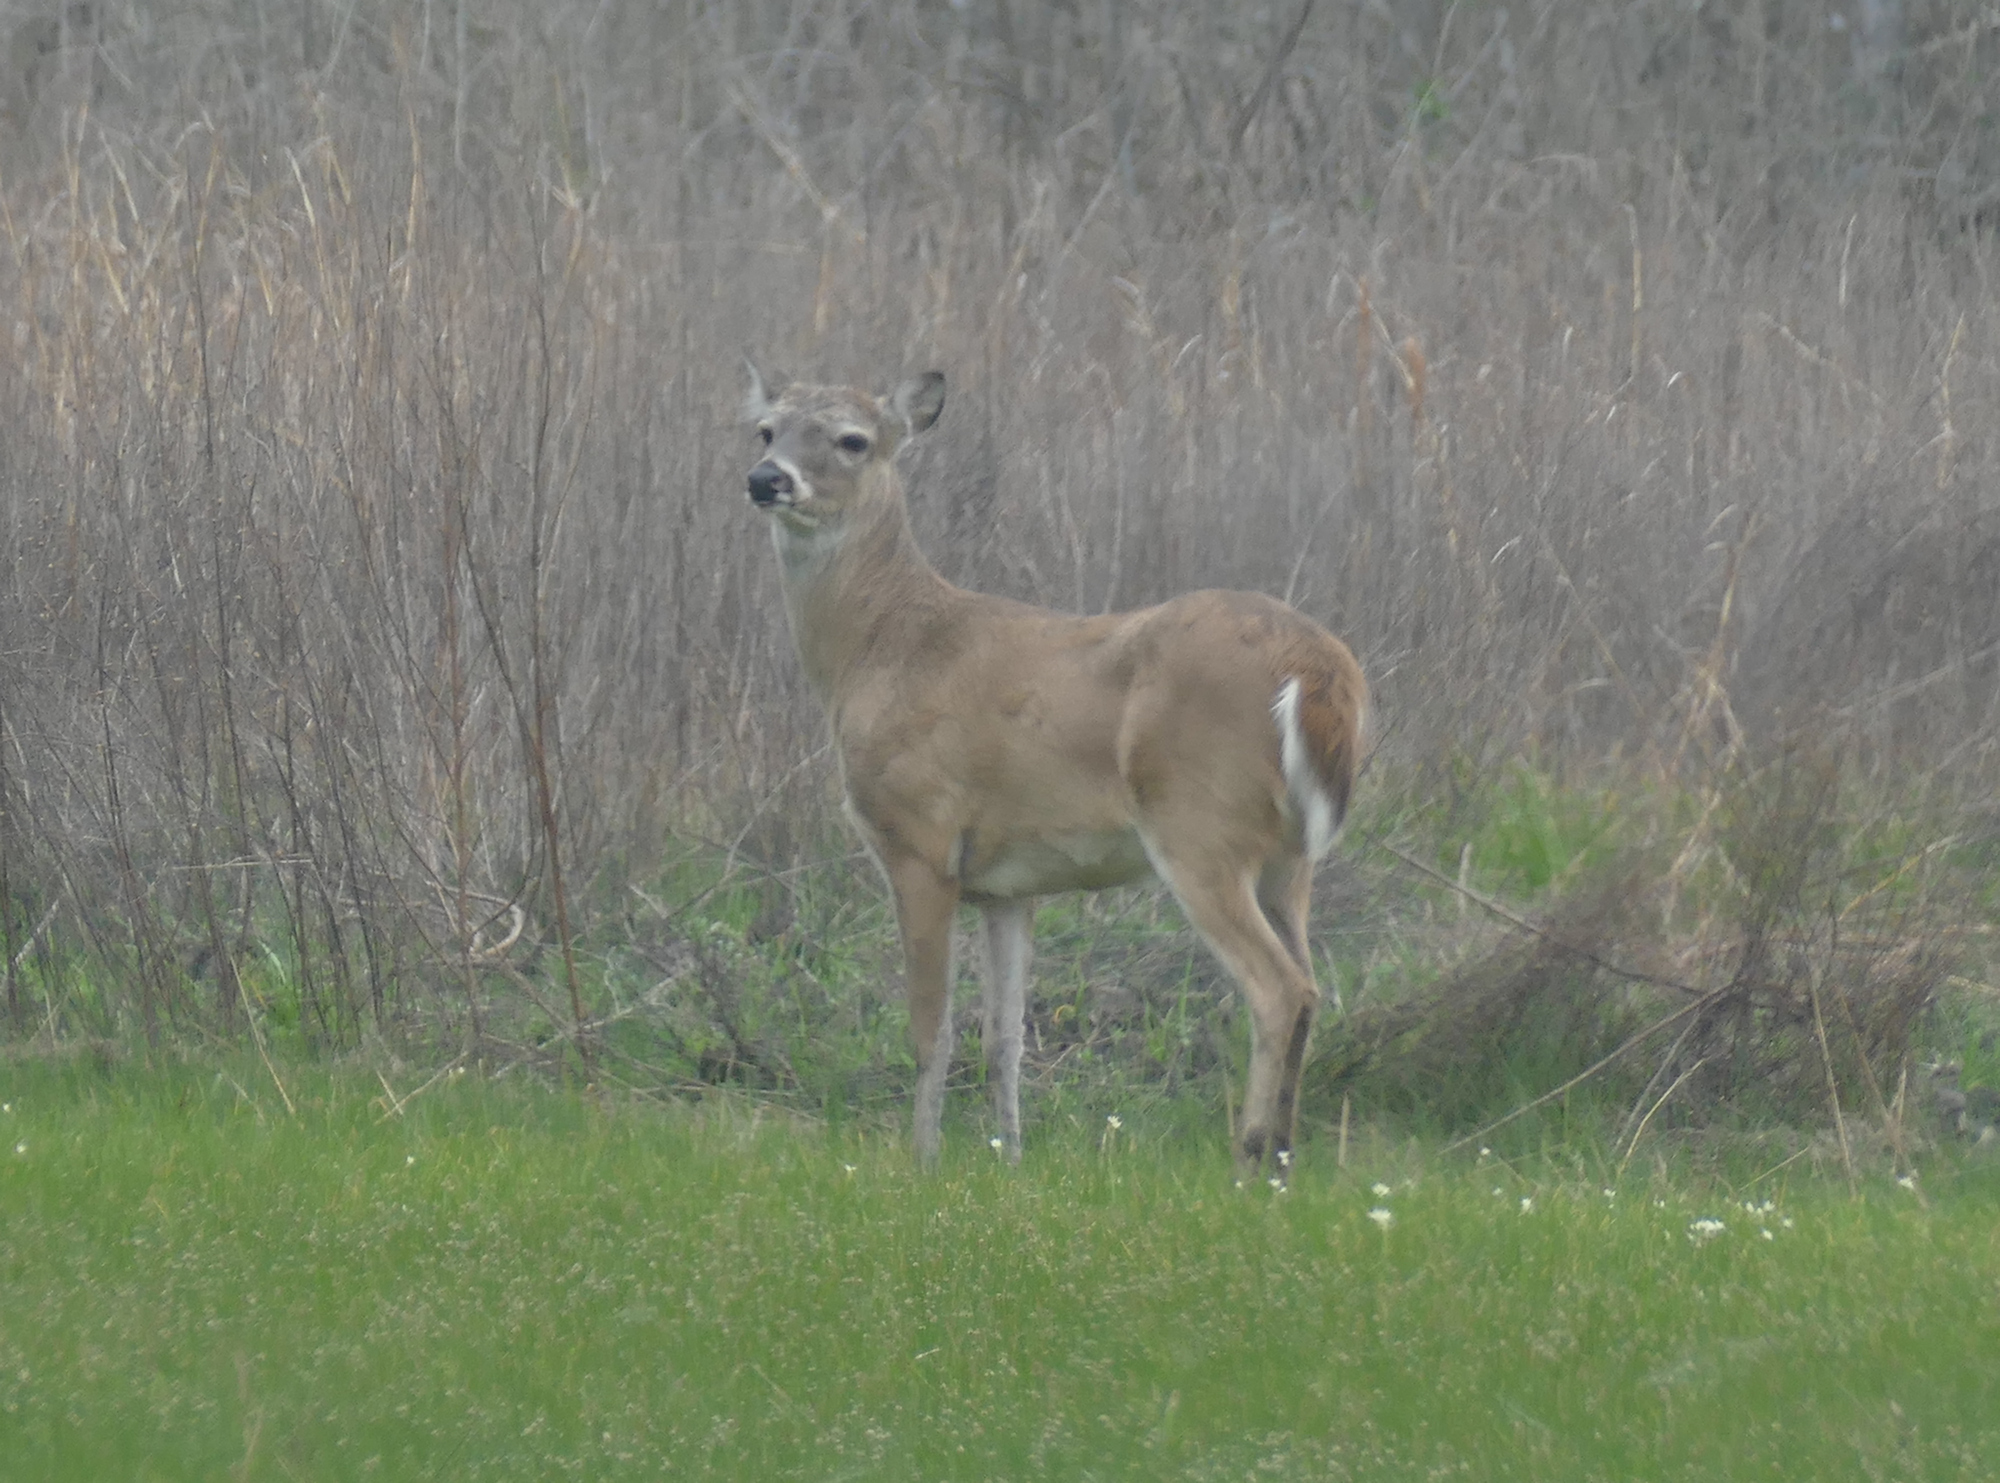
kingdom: Animalia
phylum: Chordata
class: Mammalia
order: Artiodactyla
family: Cervidae
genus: Odocoileus
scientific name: Odocoileus virginianus
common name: White-tailed deer
